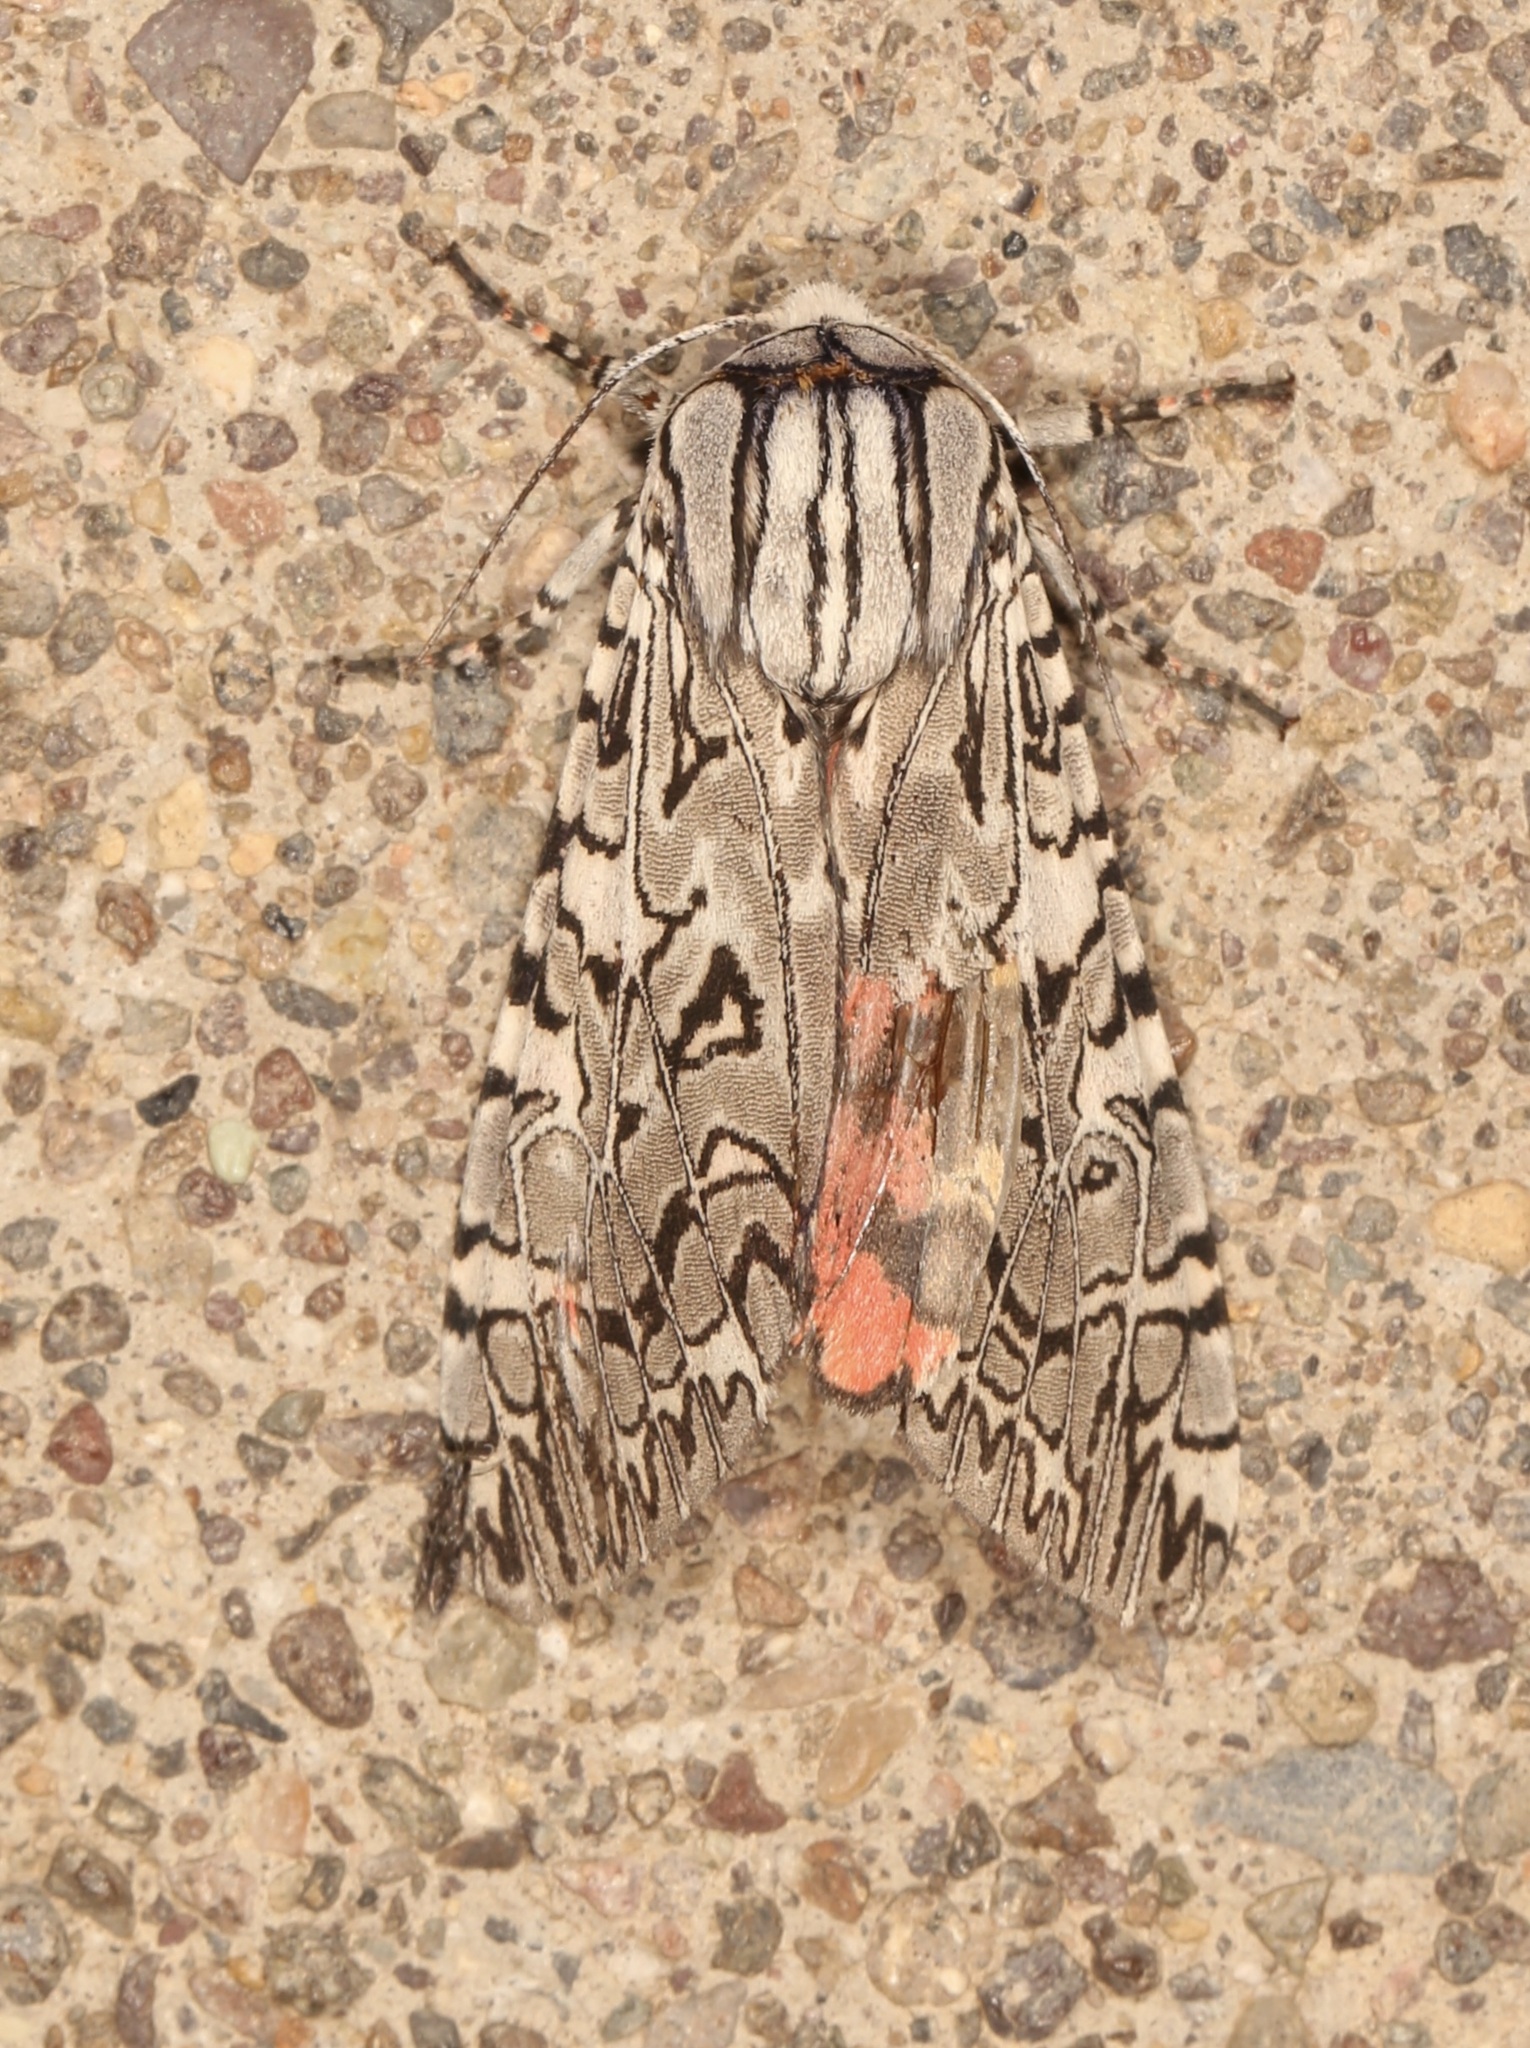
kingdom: Animalia
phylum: Arthropoda
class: Insecta
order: Lepidoptera
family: Erebidae
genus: Arachnis
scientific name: Arachnis picta
